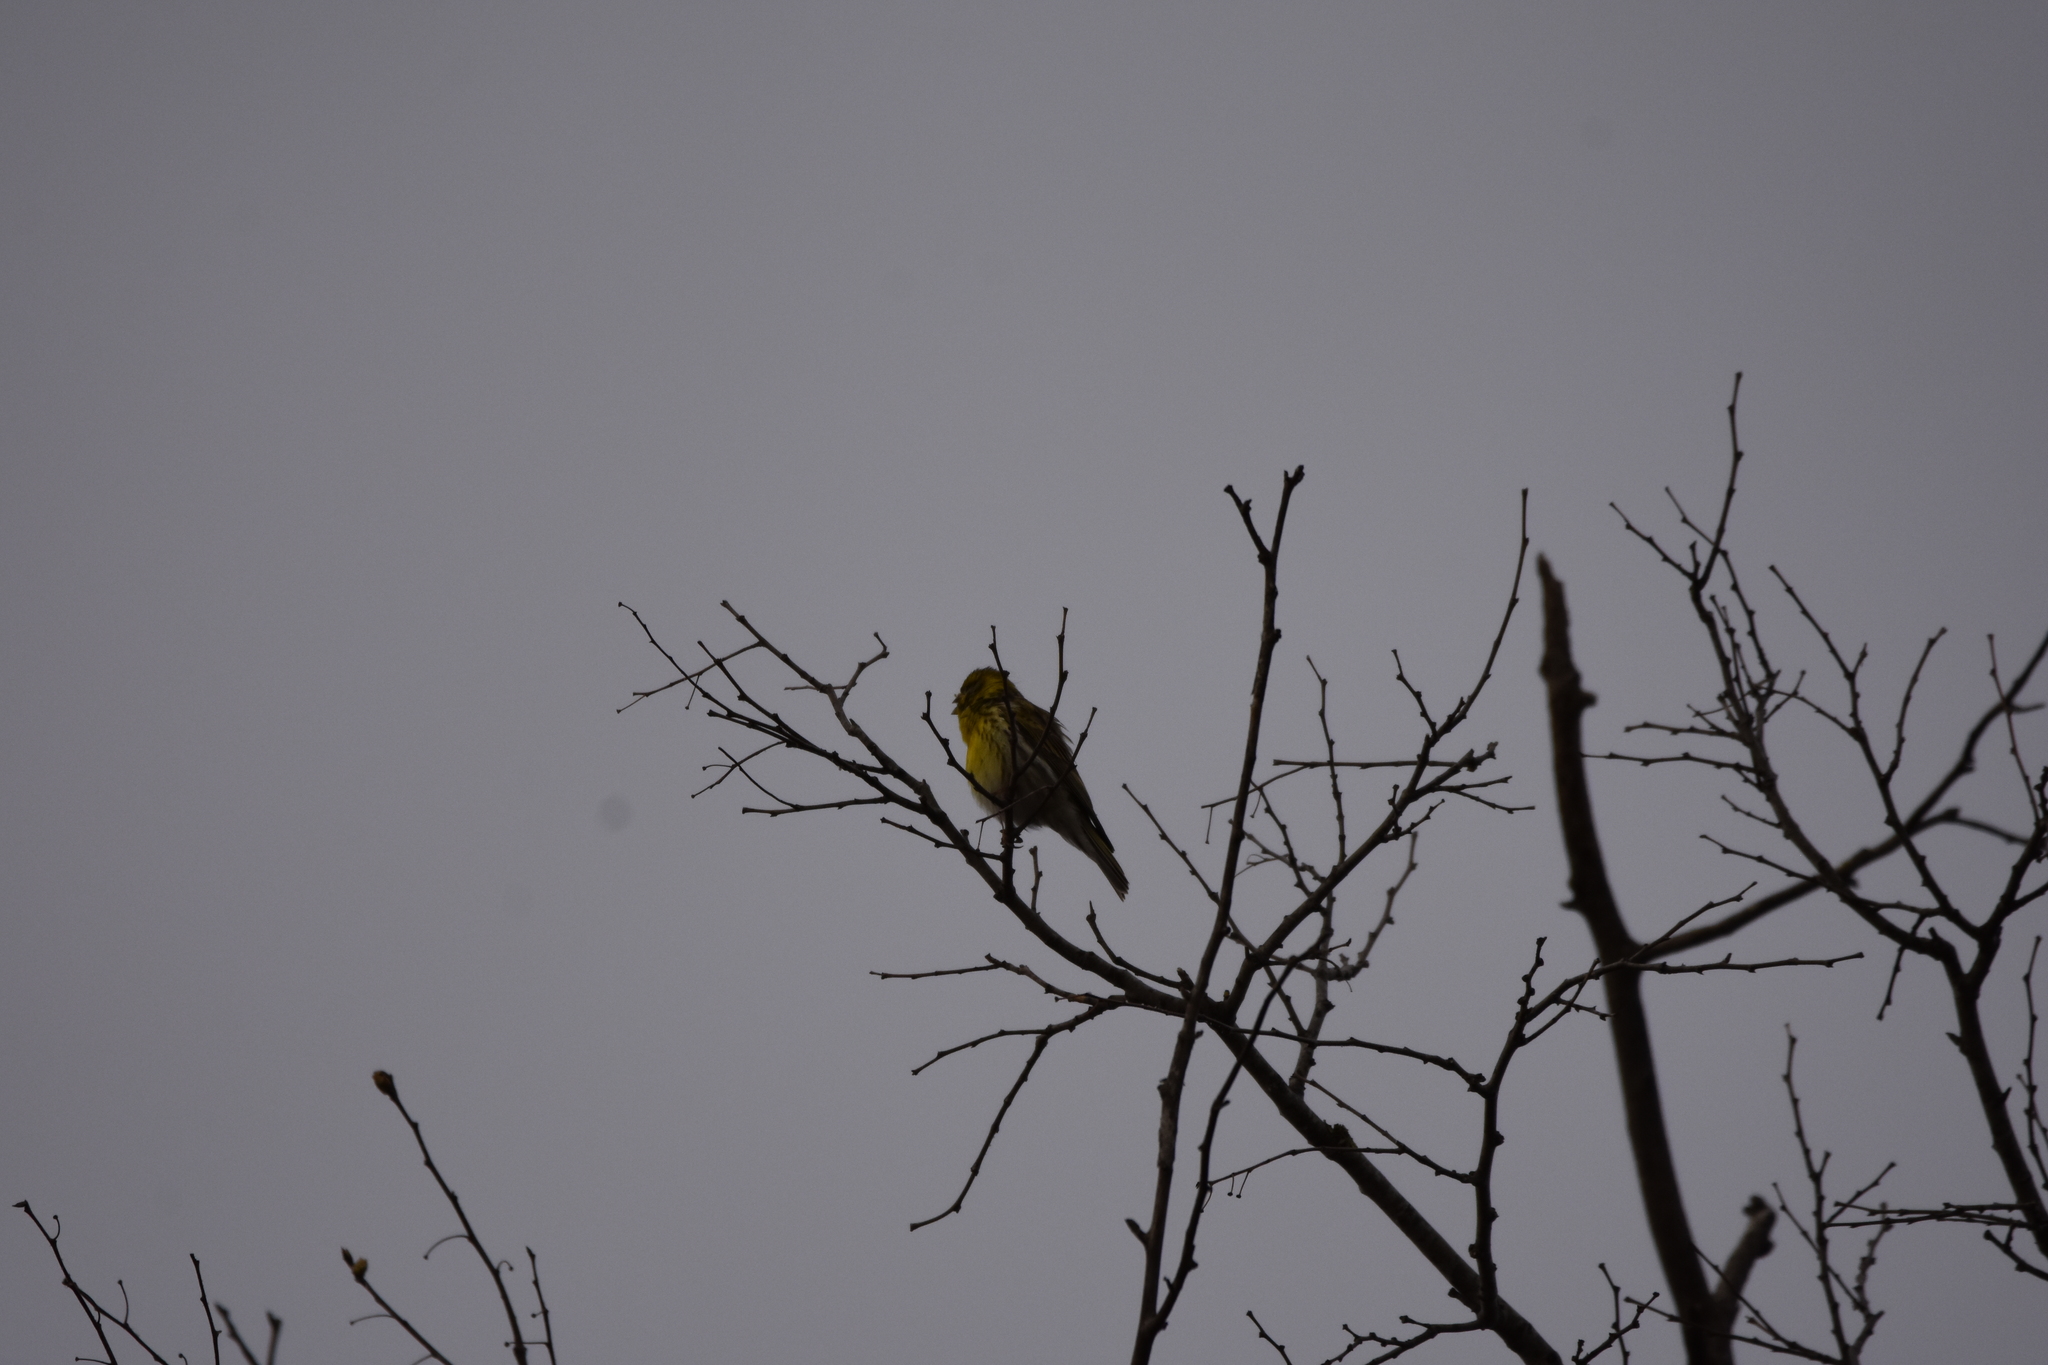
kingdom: Animalia
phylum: Chordata
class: Aves
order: Passeriformes
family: Fringillidae
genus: Serinus
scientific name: Serinus serinus
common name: European serin
